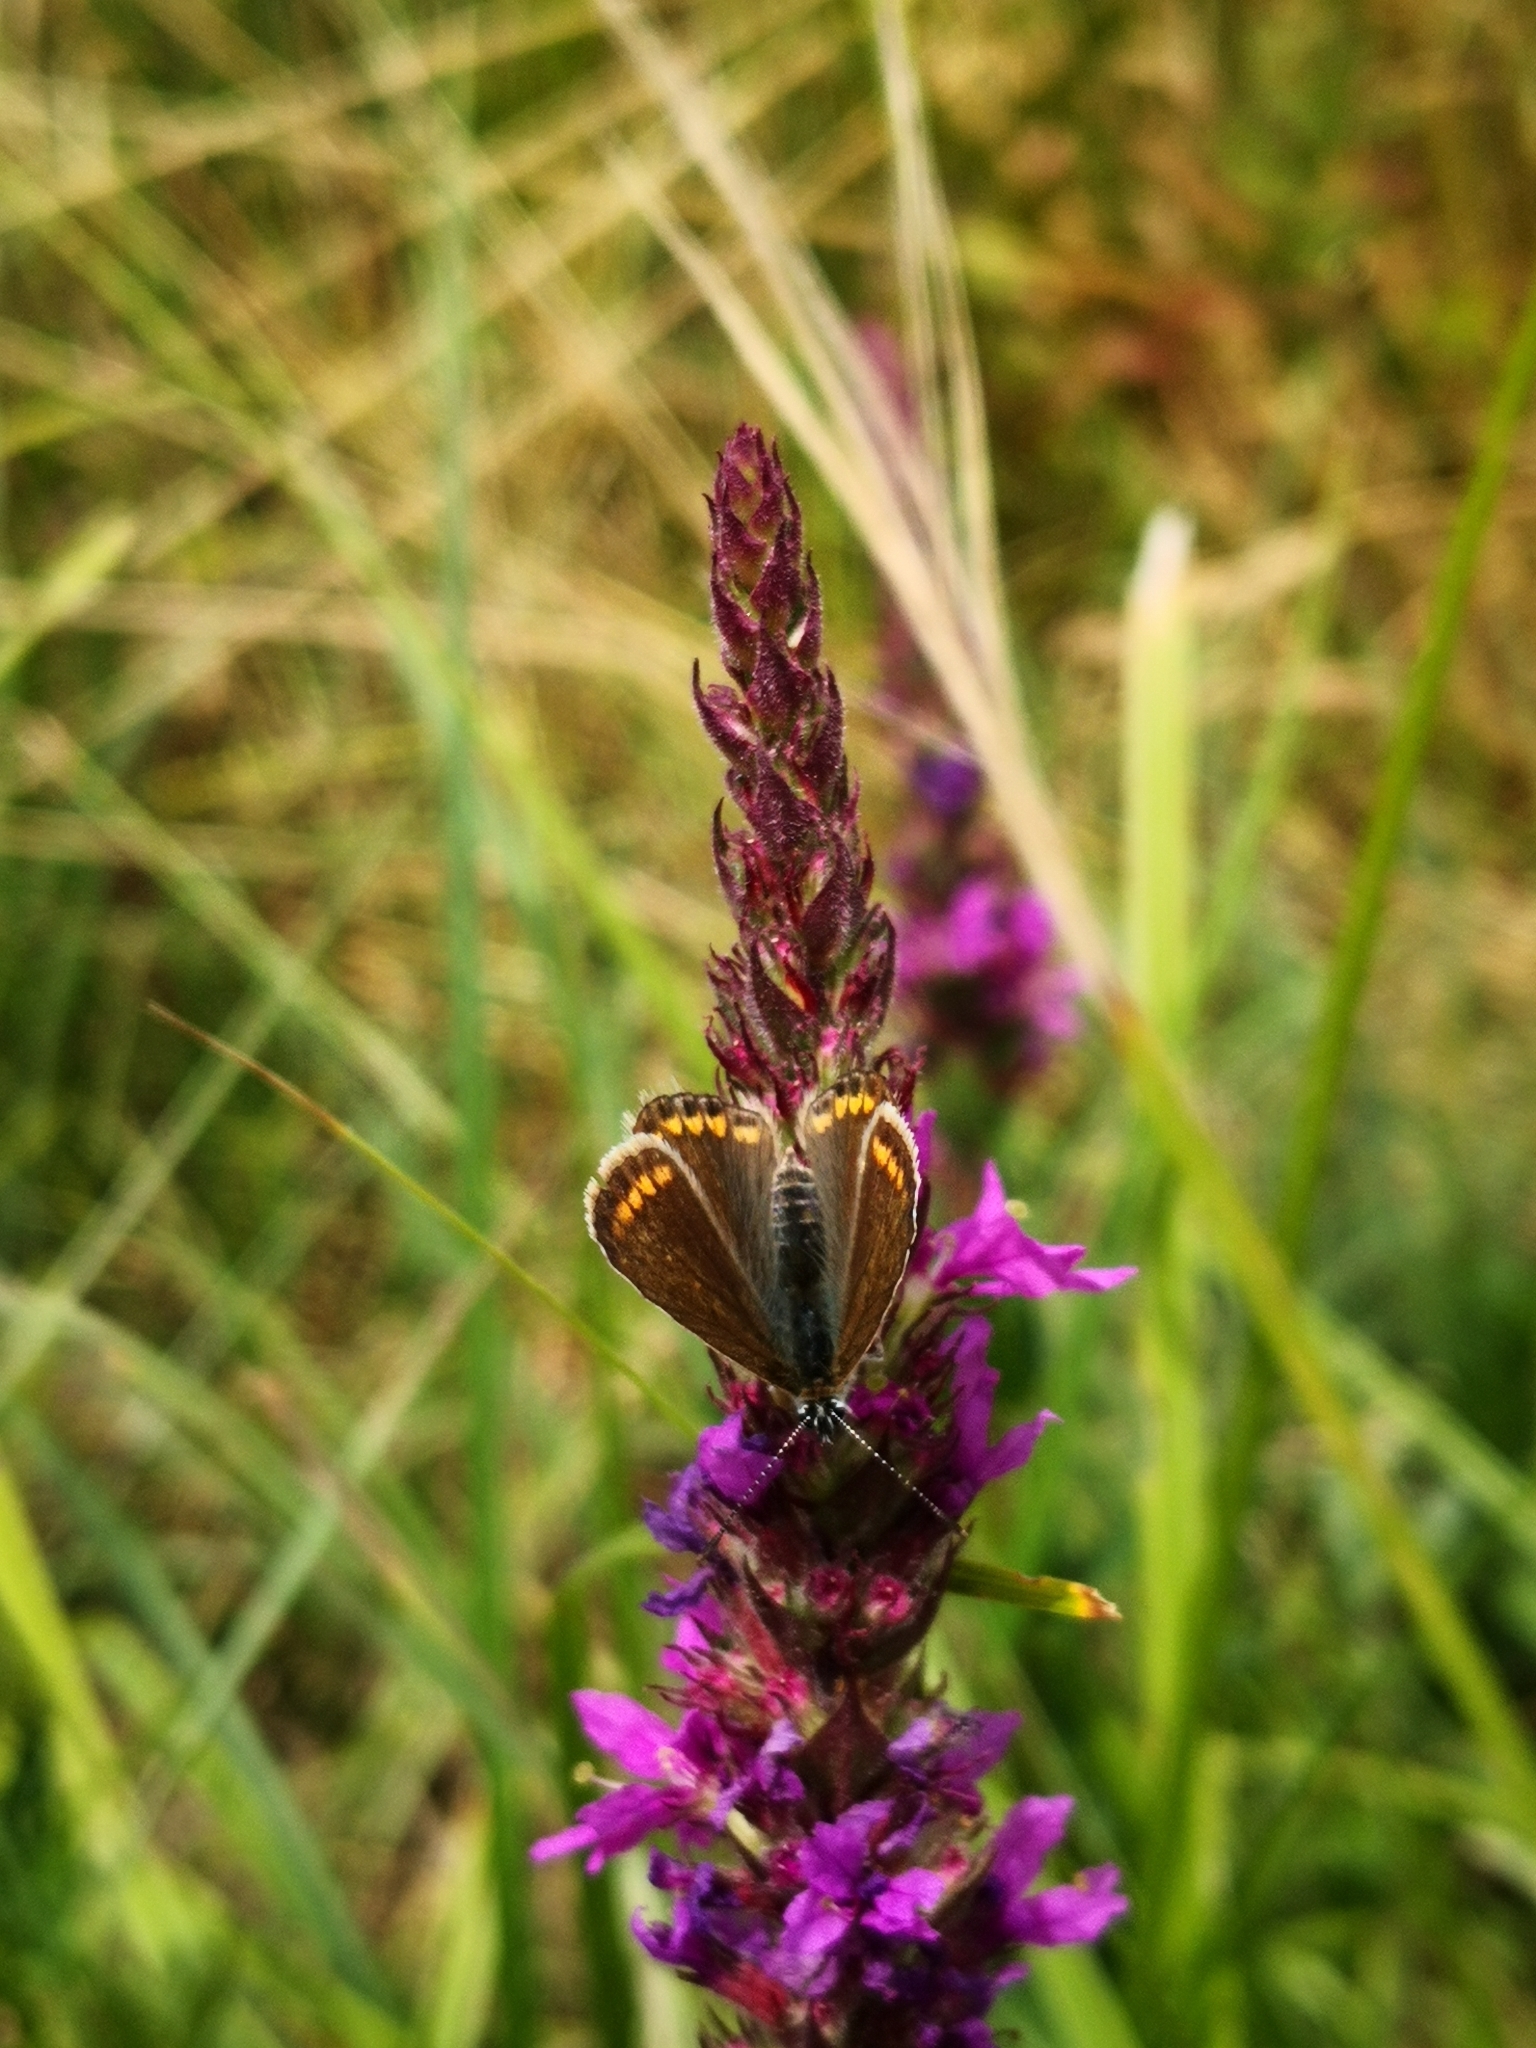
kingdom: Animalia
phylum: Arthropoda
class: Insecta
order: Lepidoptera
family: Lycaenidae
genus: Polyommatus
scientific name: Polyommatus icarus
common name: Common blue
